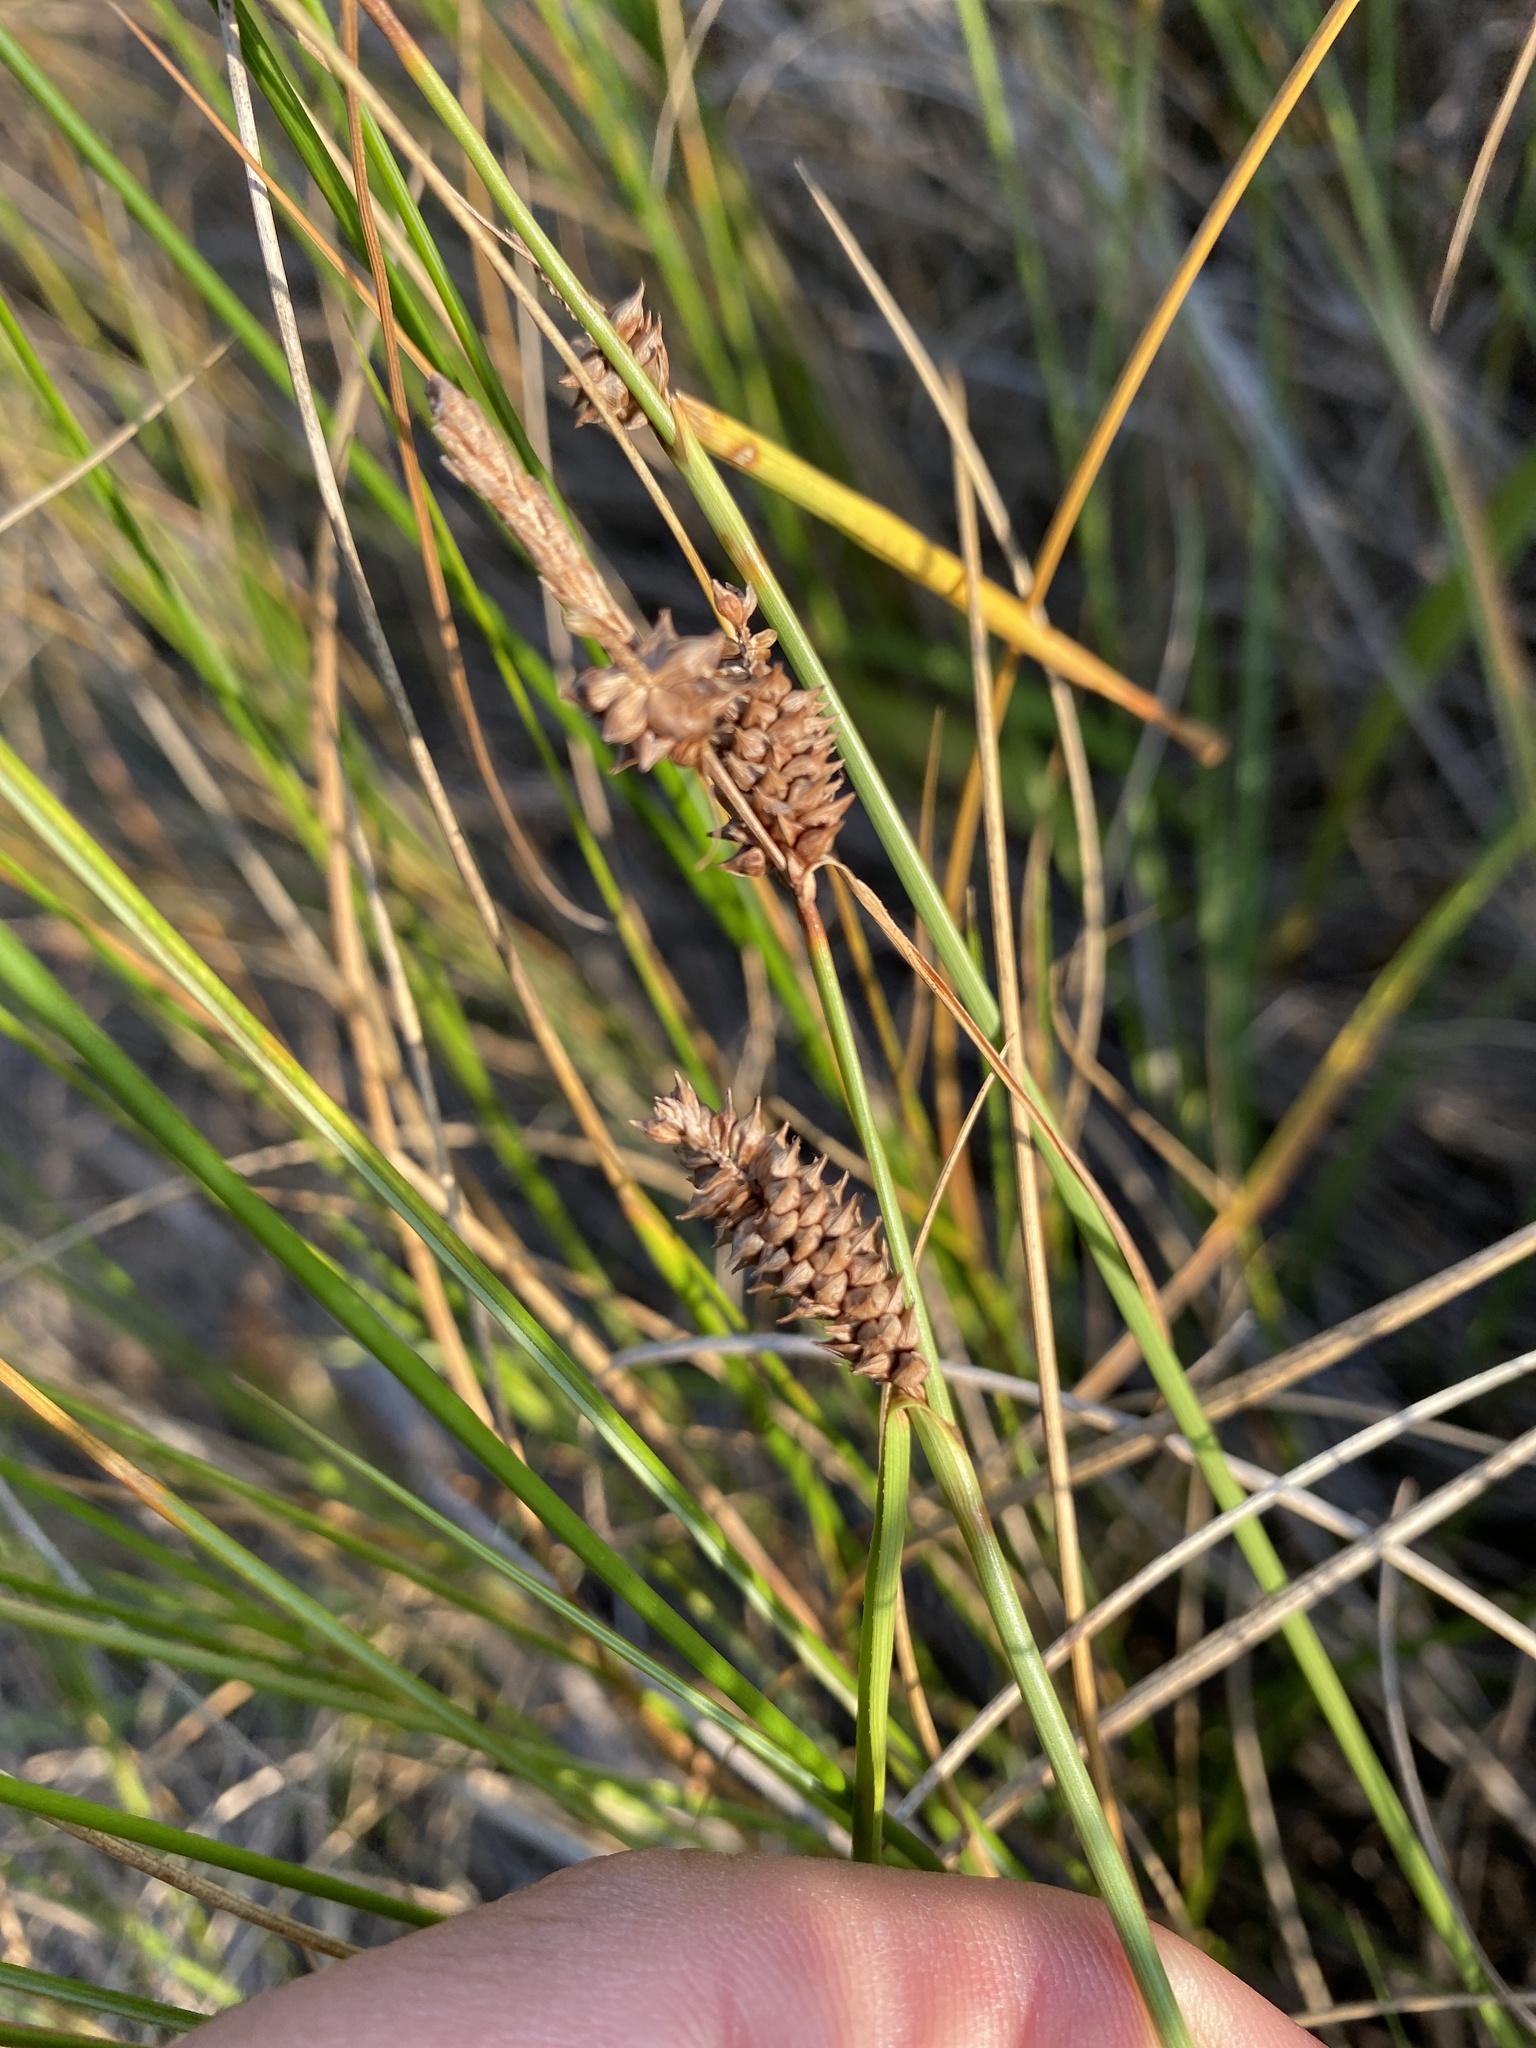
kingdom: Plantae
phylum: Tracheophyta
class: Liliopsida
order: Poales
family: Cyperaceae
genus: Carex
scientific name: Carex extensa
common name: Long-bracted sedge
